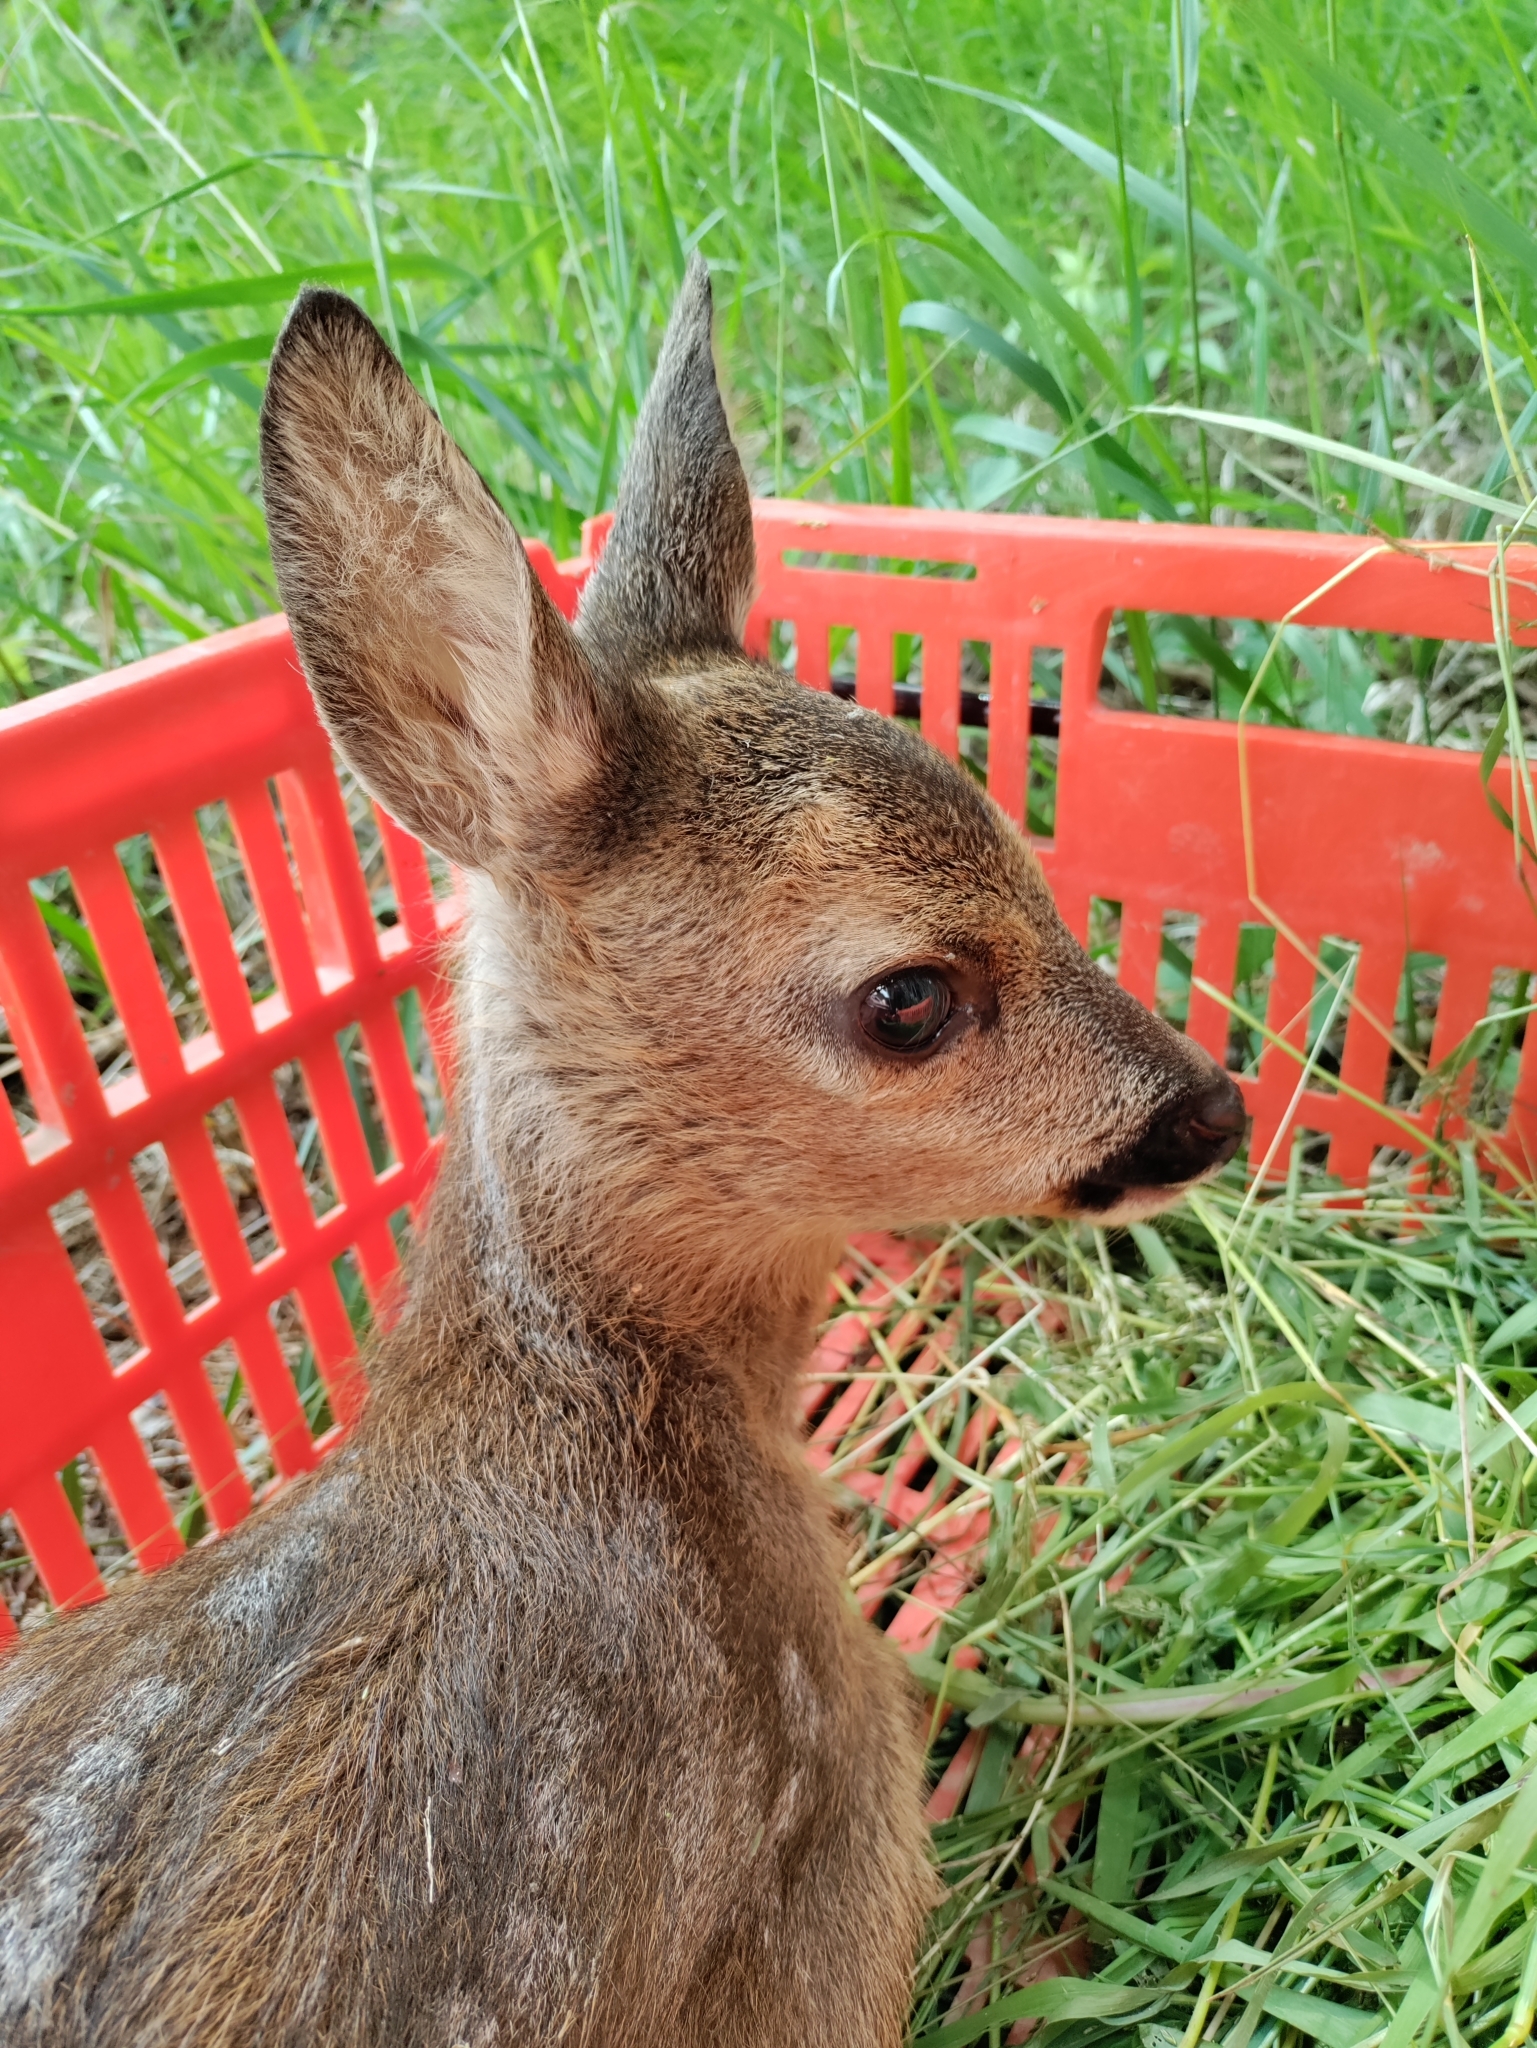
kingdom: Animalia
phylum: Chordata
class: Mammalia
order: Artiodactyla
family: Cervidae
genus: Capreolus
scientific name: Capreolus capreolus
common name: Western roe deer
